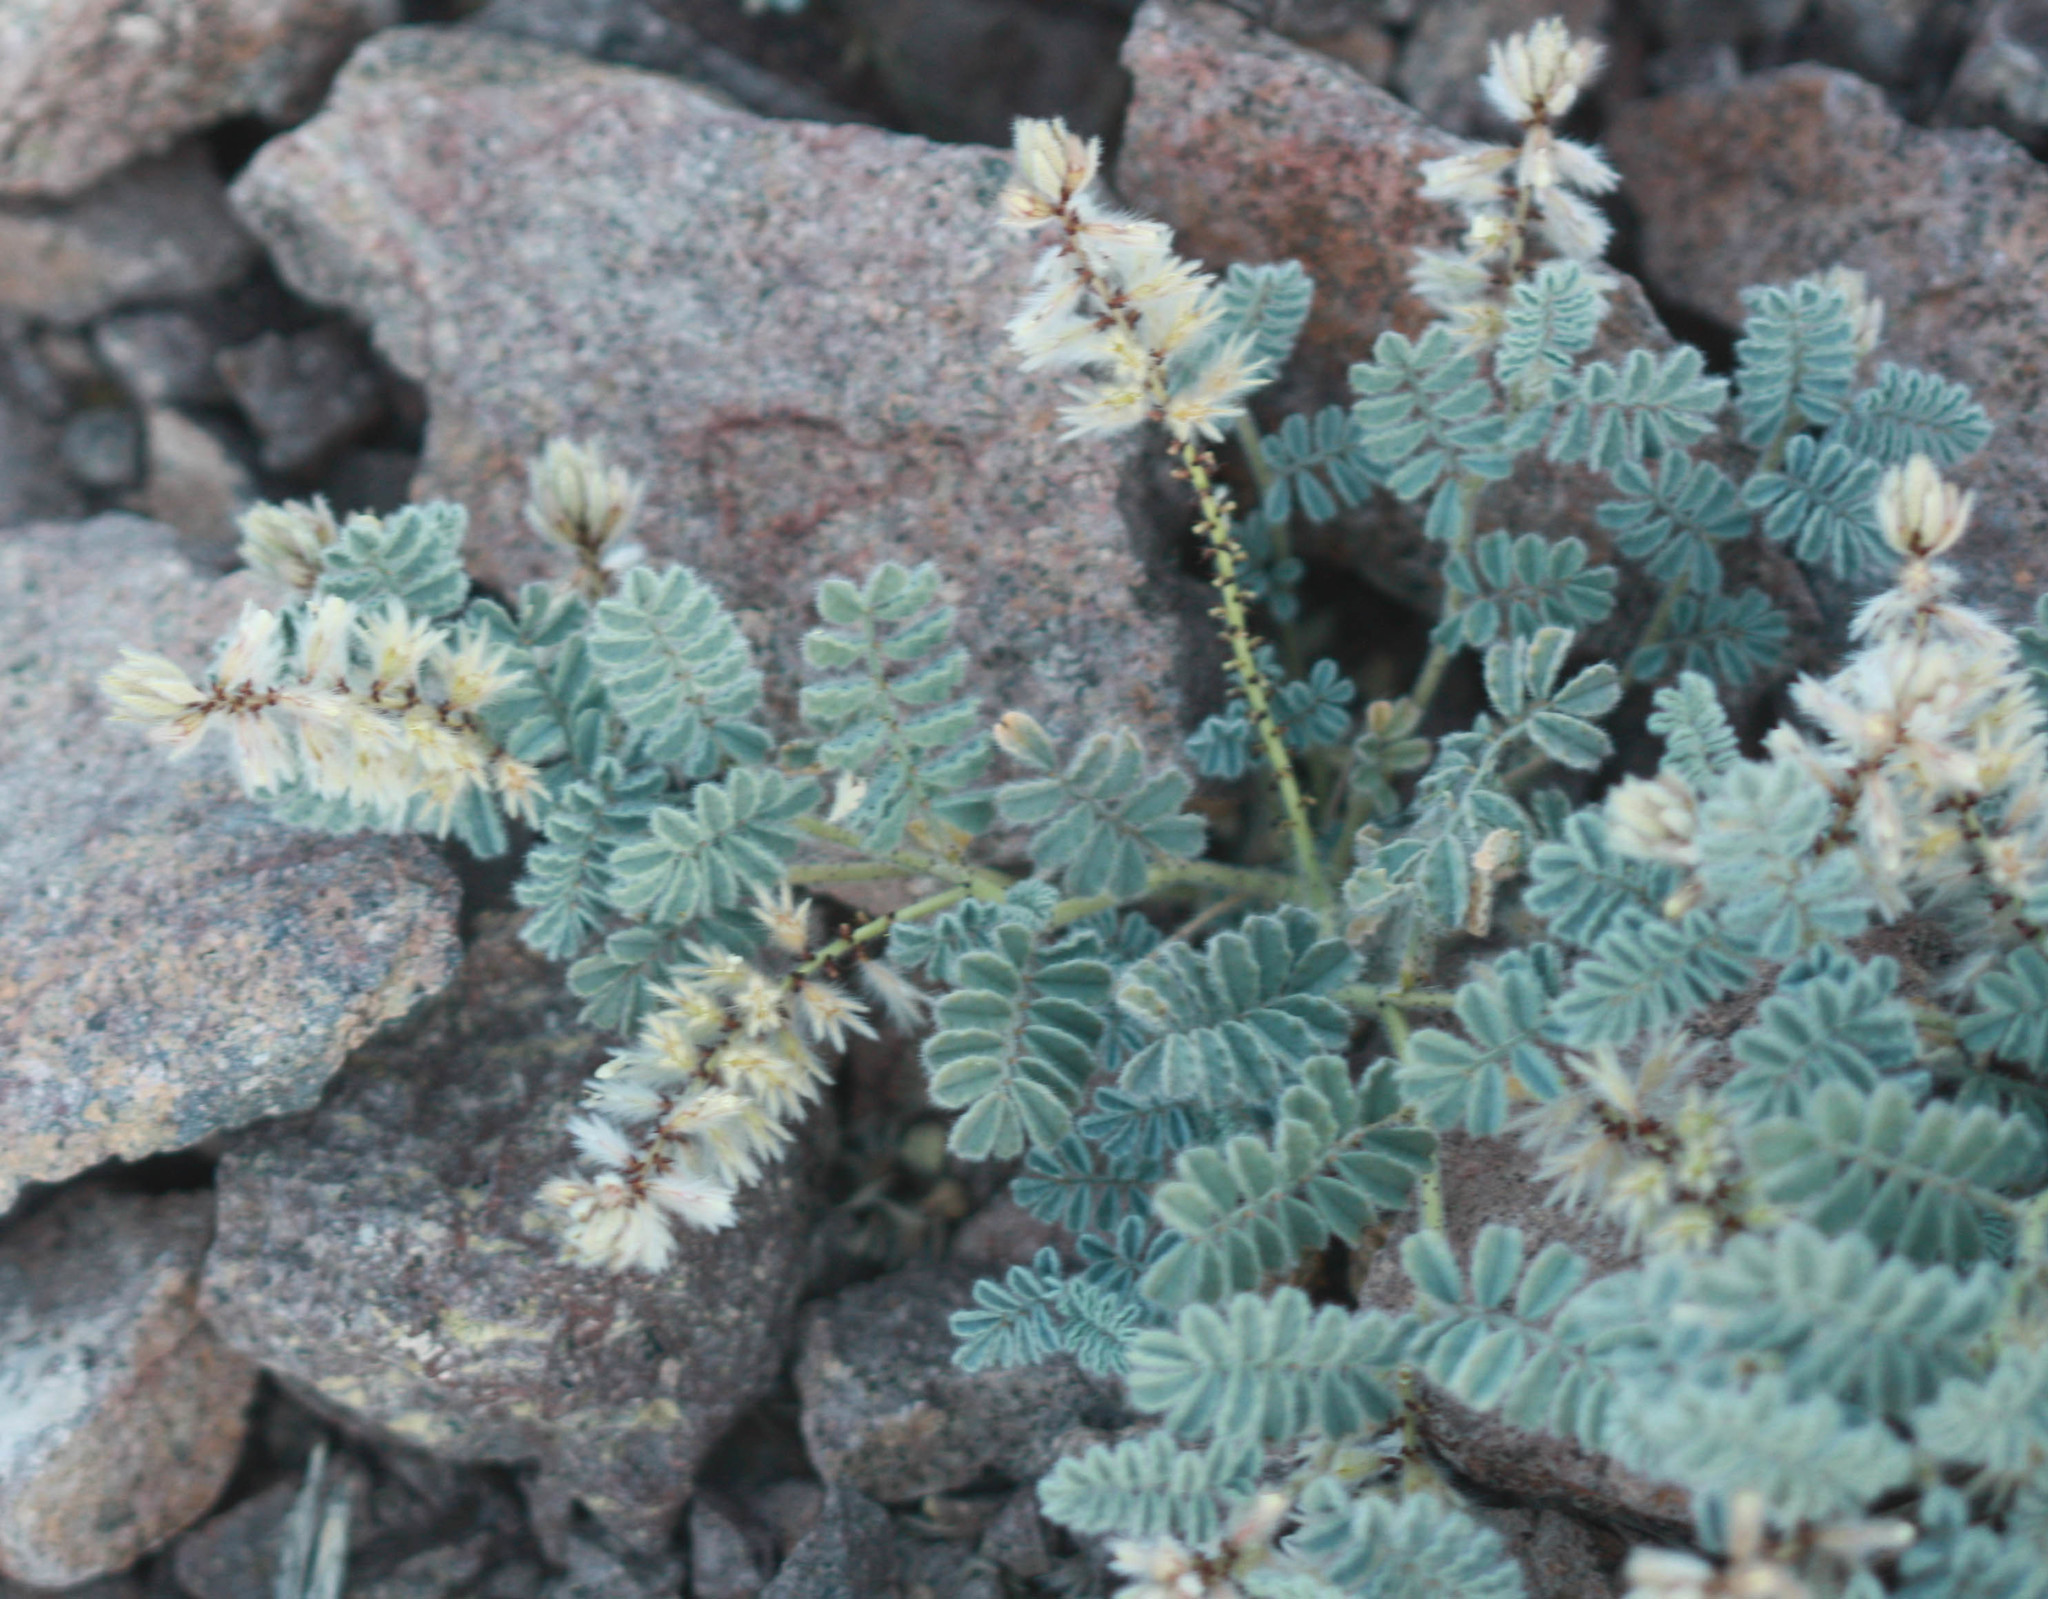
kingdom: Plantae
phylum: Tracheophyta
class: Magnoliopsida
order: Fabales
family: Fabaceae
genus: Dalea
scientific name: Dalea mollissima
